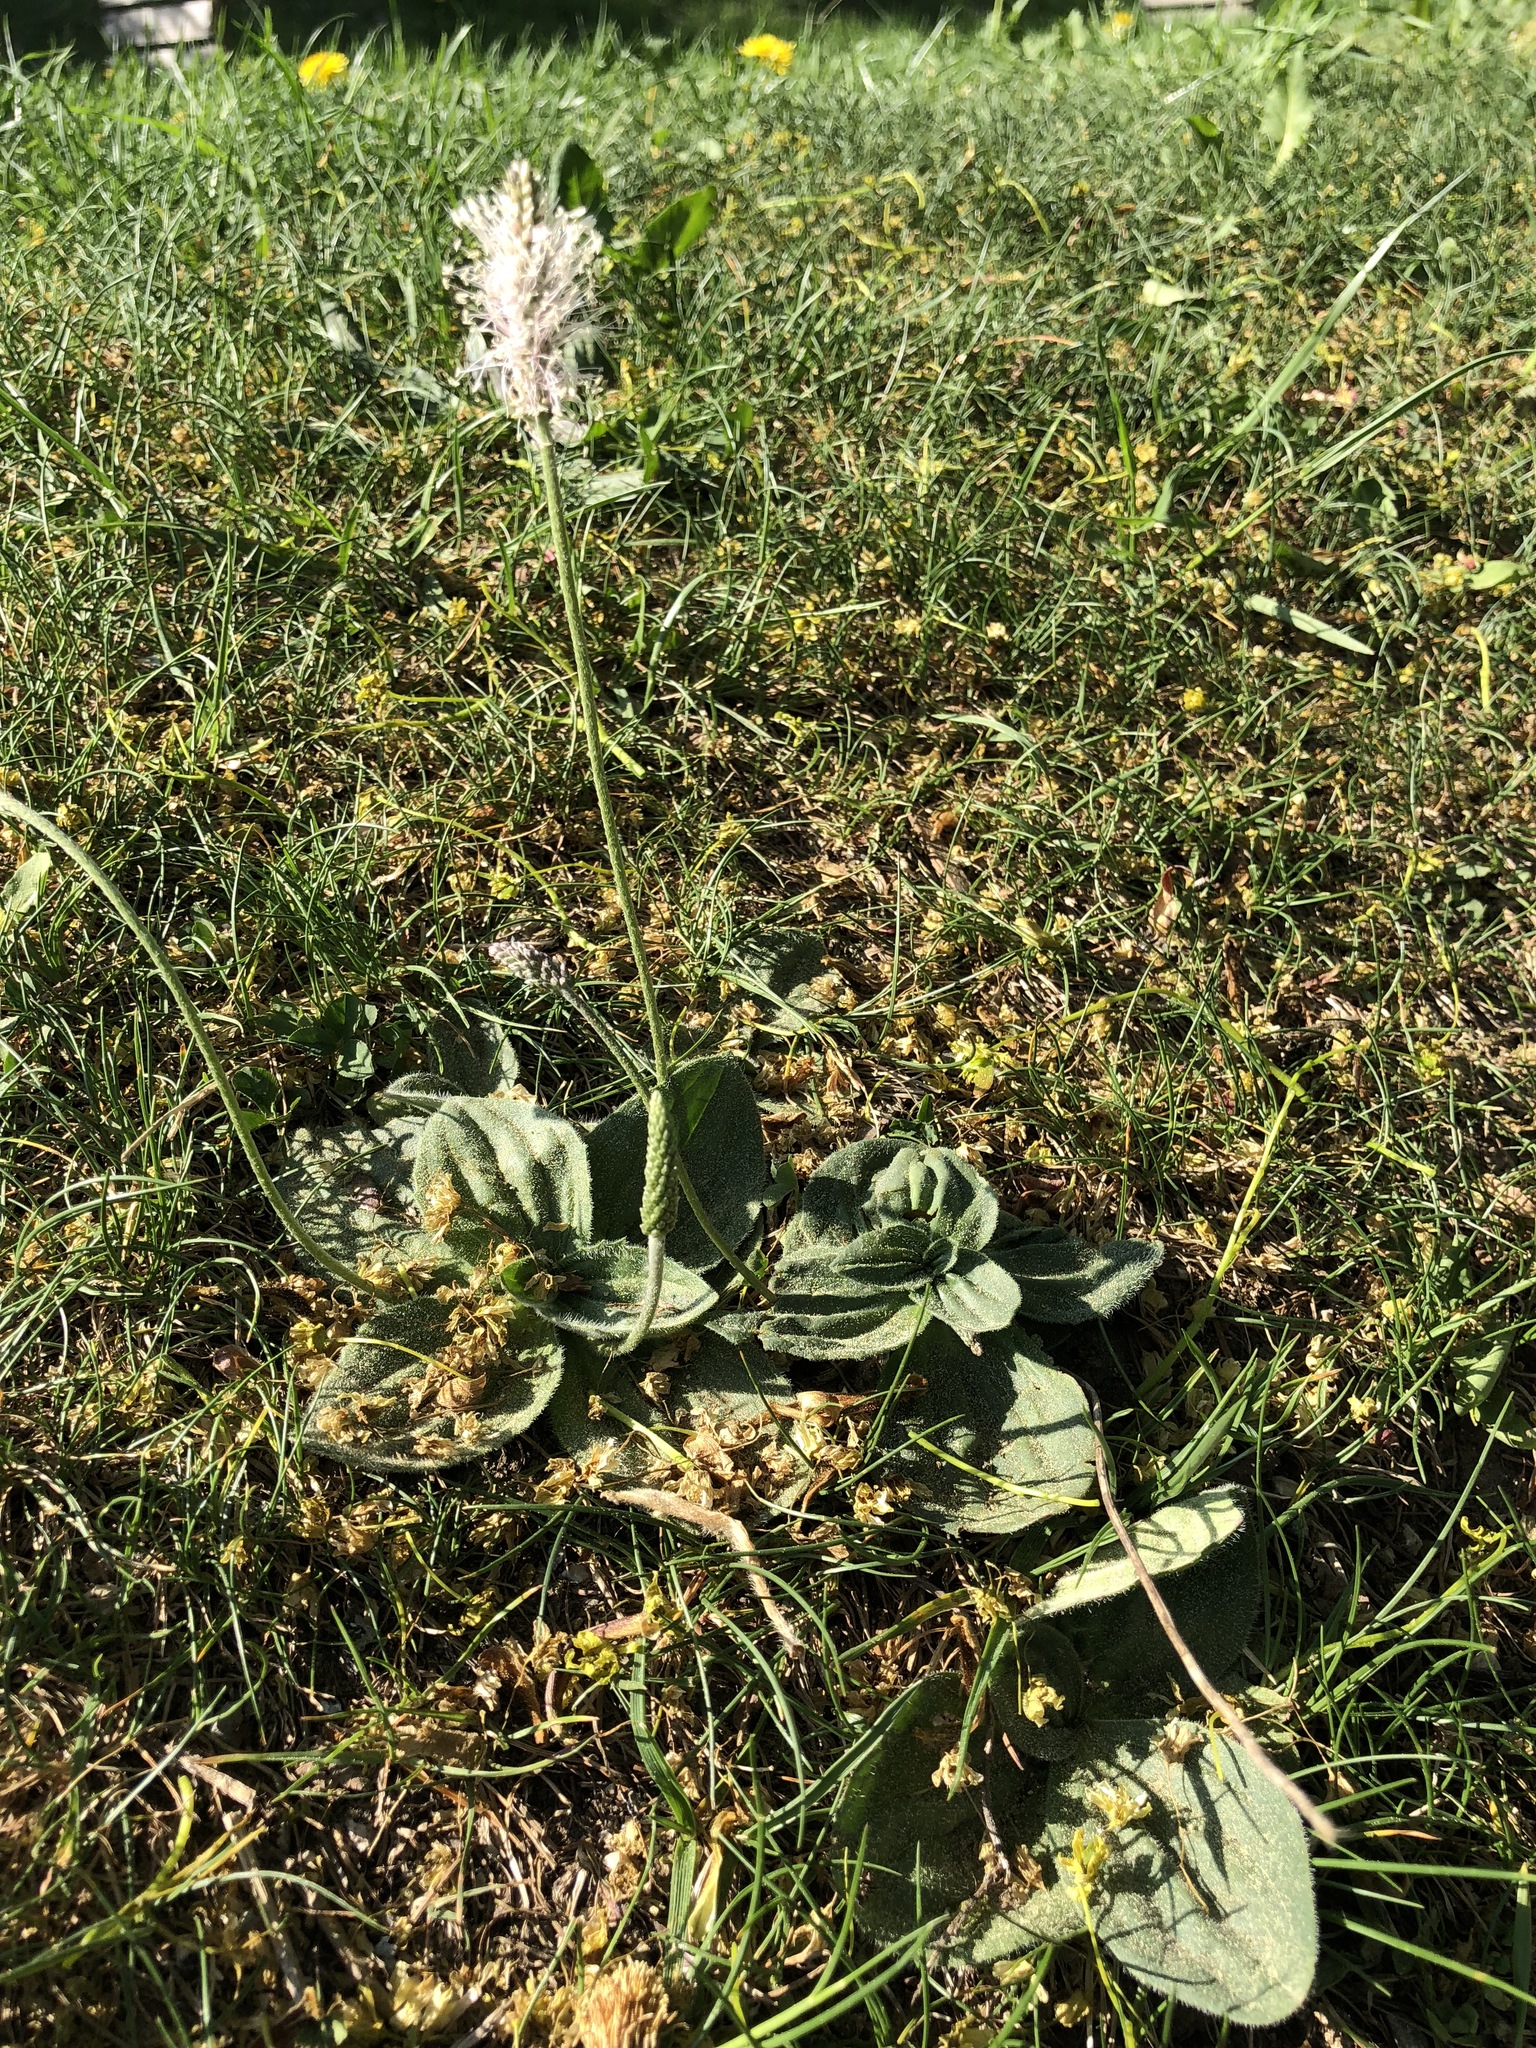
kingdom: Plantae
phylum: Tracheophyta
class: Magnoliopsida
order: Lamiales
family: Plantaginaceae
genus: Plantago
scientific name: Plantago media
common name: Hoary plantain
